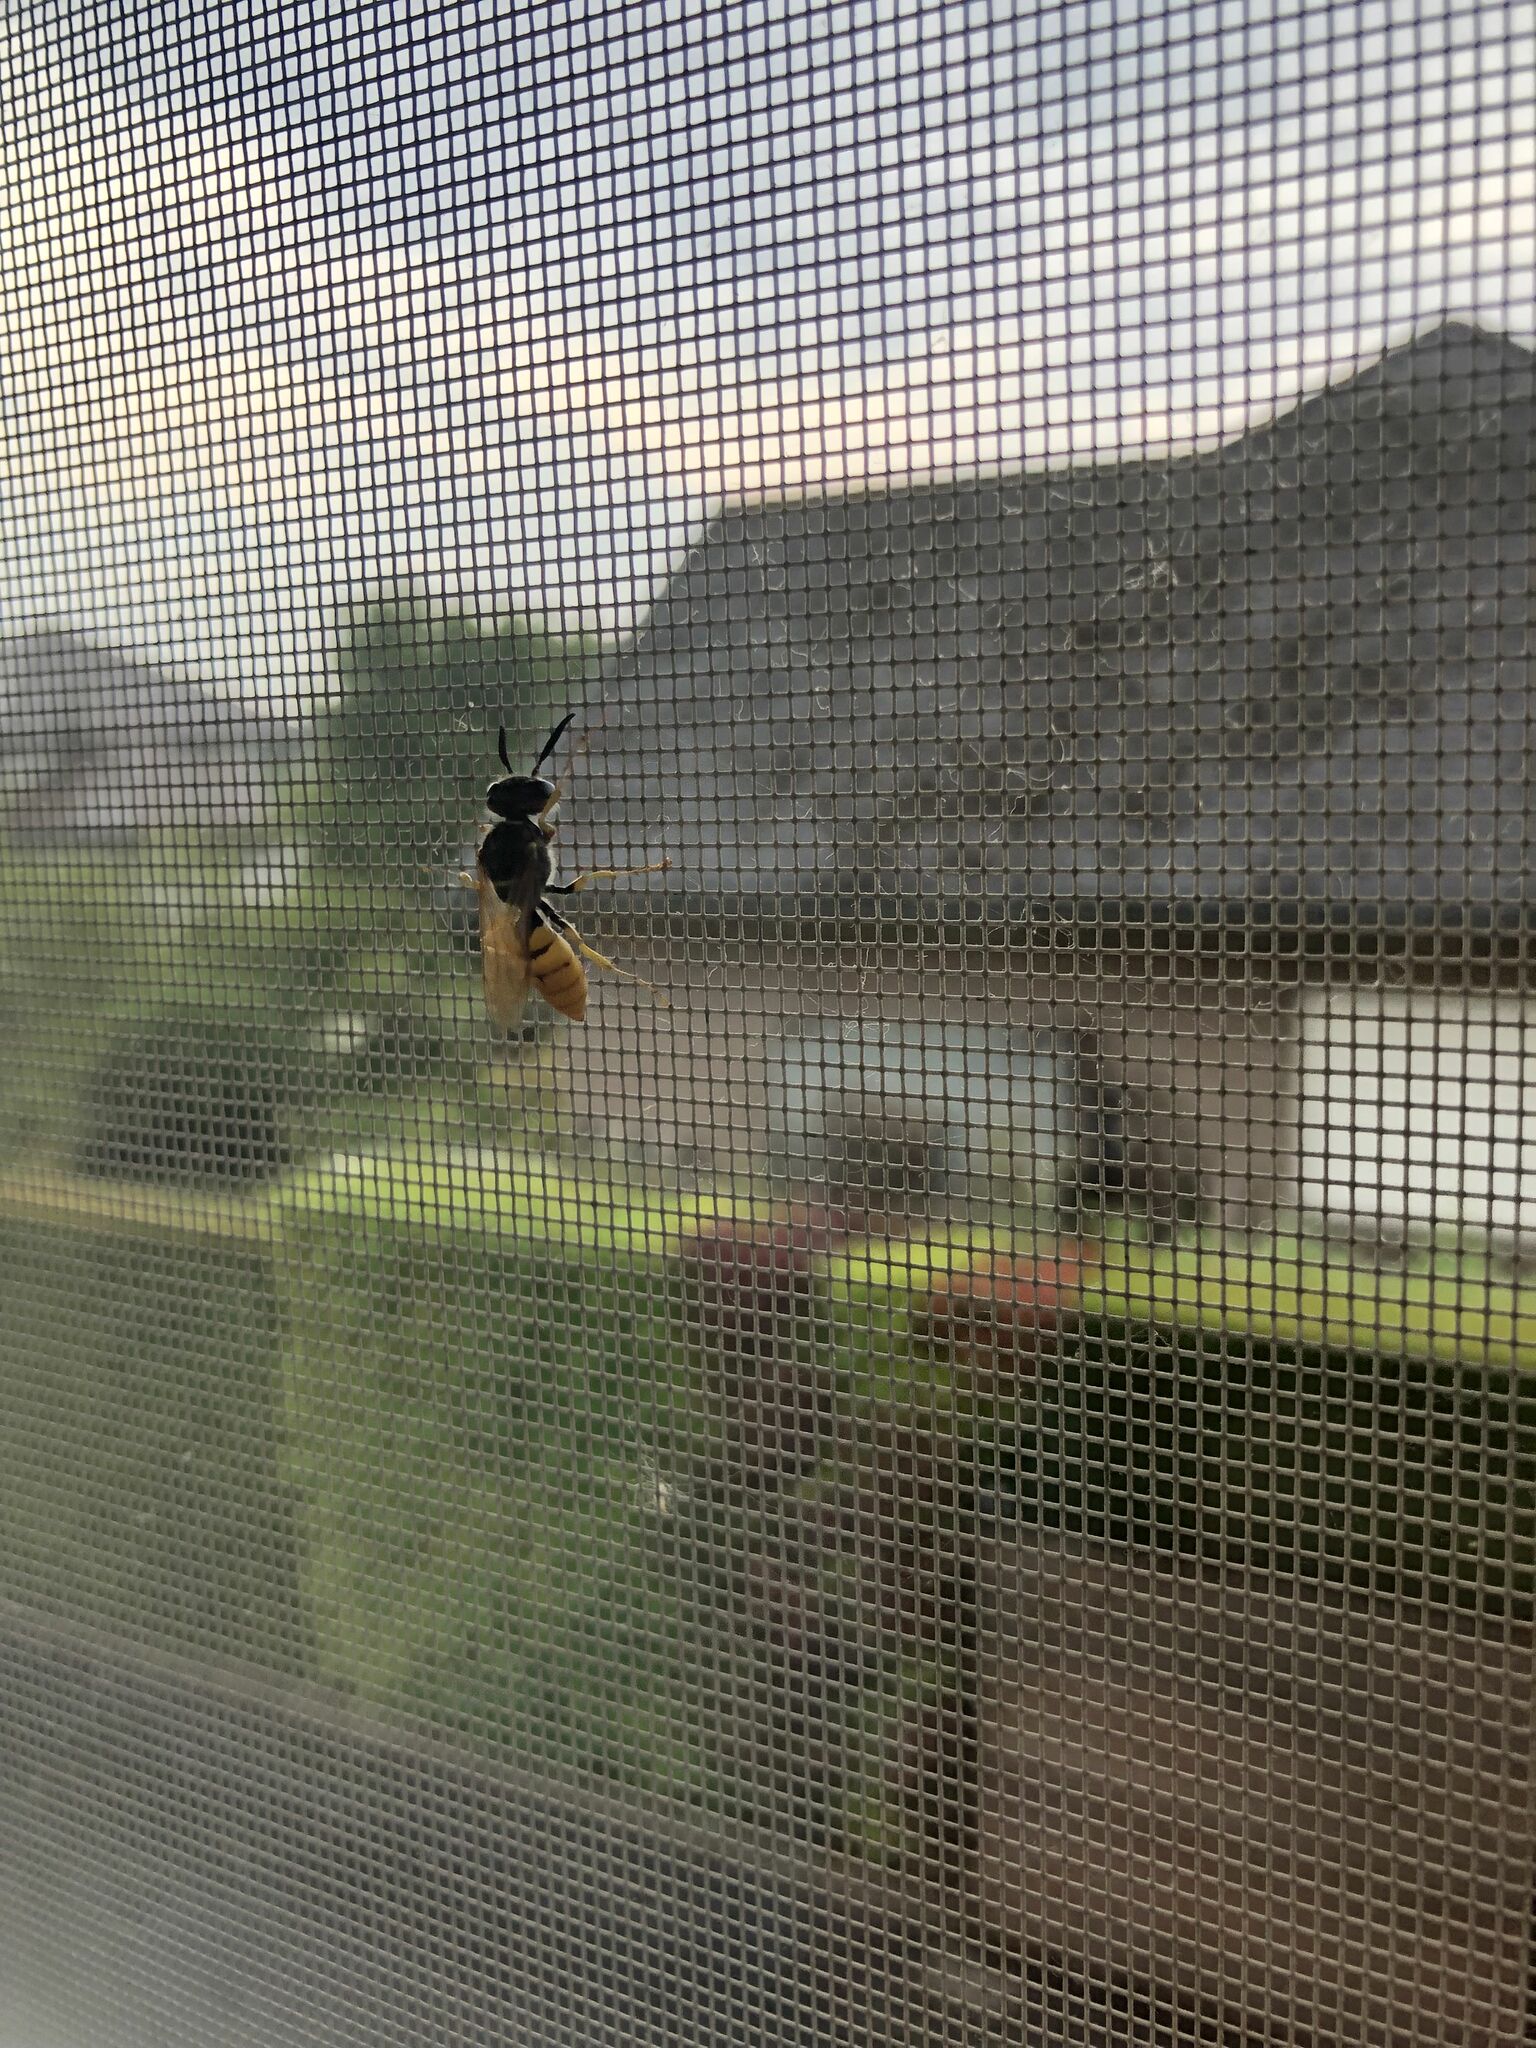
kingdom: Animalia
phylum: Arthropoda
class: Insecta
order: Hymenoptera
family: Crabronidae
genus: Philanthus
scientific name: Philanthus triangulum
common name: Bee wolf
